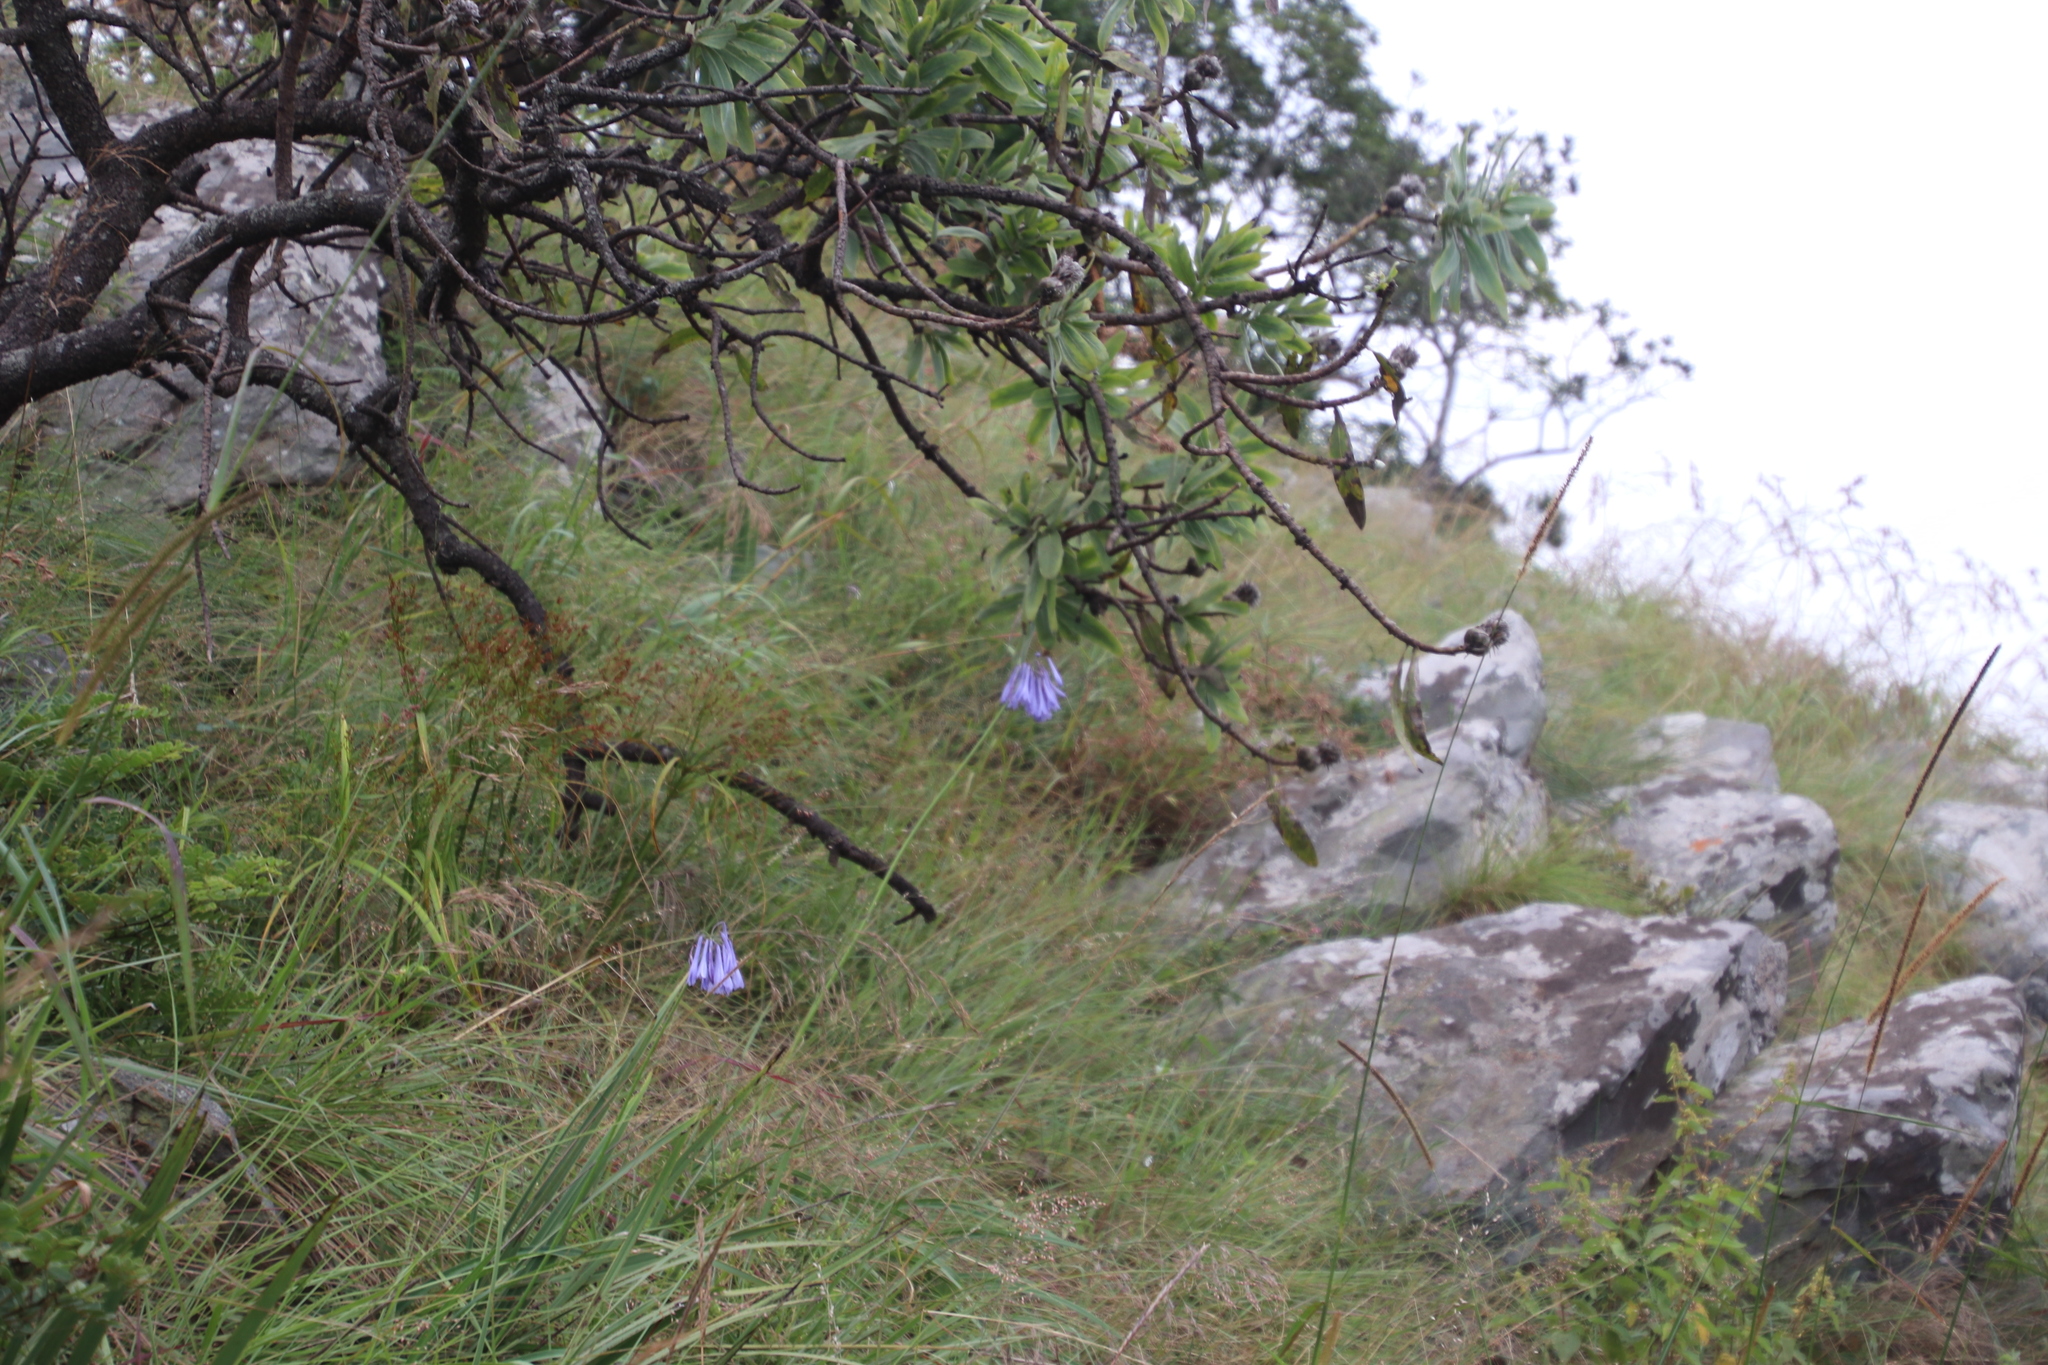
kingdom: Plantae
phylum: Tracheophyta
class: Liliopsida
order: Asparagales
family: Amaryllidaceae
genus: Agapanthus
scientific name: Agapanthus inapertus
